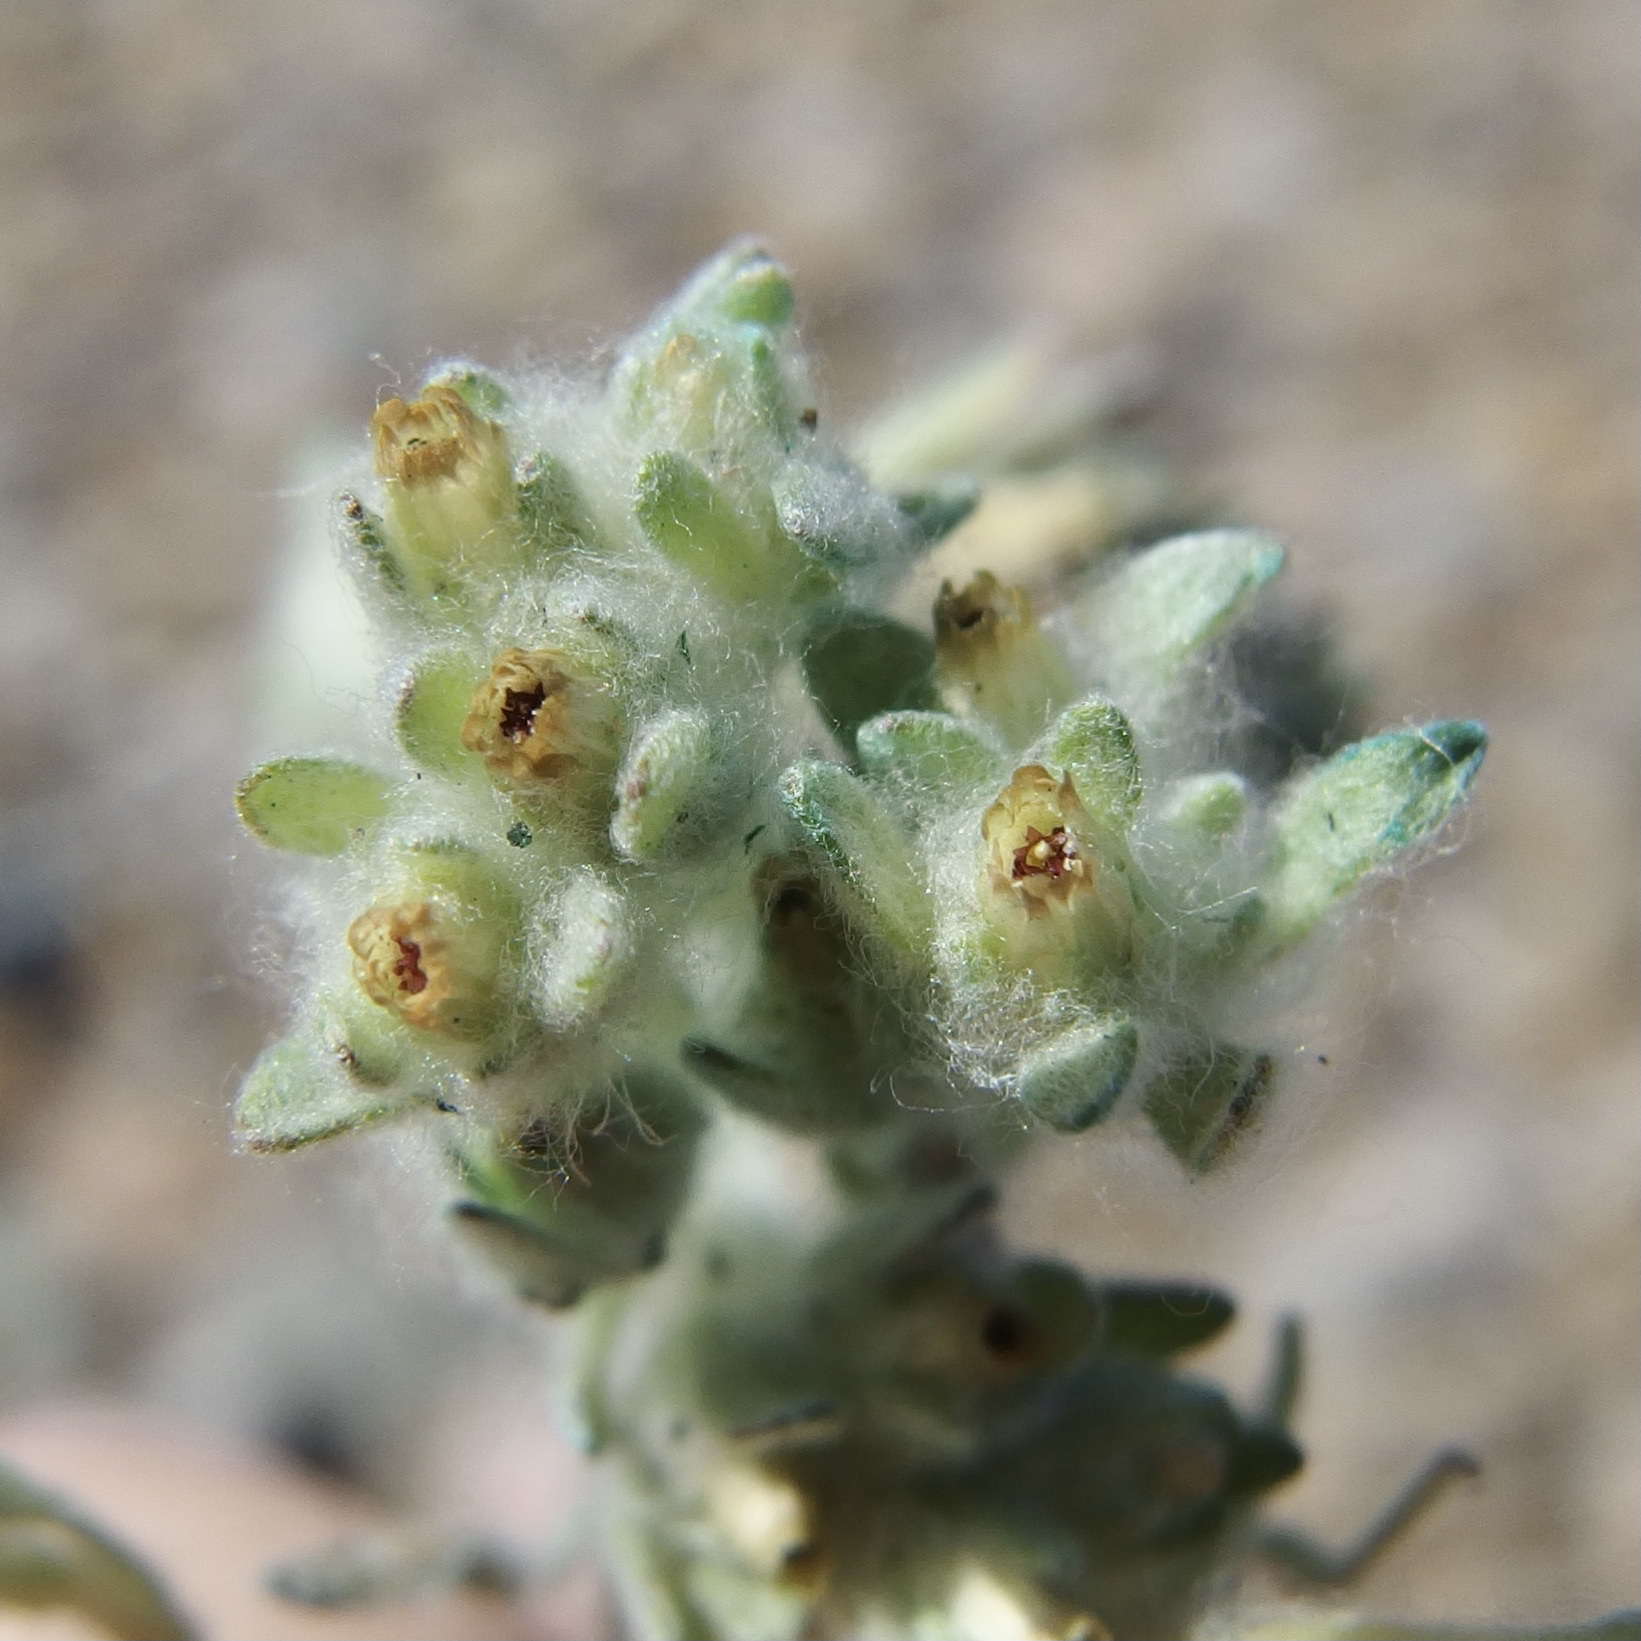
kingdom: Plantae
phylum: Tracheophyta
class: Magnoliopsida
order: Asterales
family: Asteraceae
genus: Lasiopogon
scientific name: Lasiopogon glomerulatus
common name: Green cat thorn
